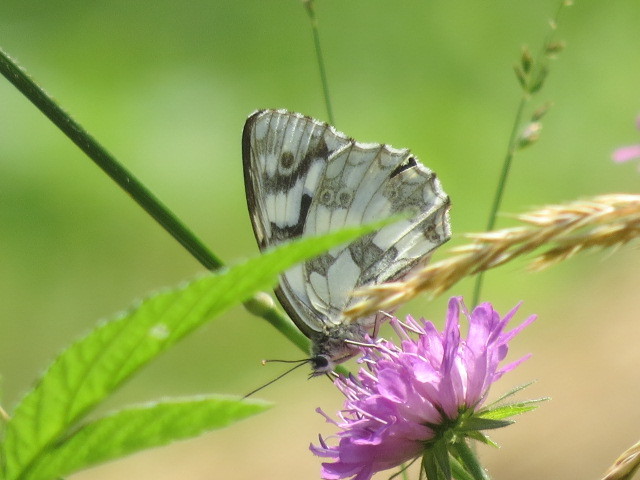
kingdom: Animalia
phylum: Arthropoda
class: Insecta
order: Lepidoptera
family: Nymphalidae
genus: Melanargia
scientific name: Melanargia galathea
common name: Marbled white
